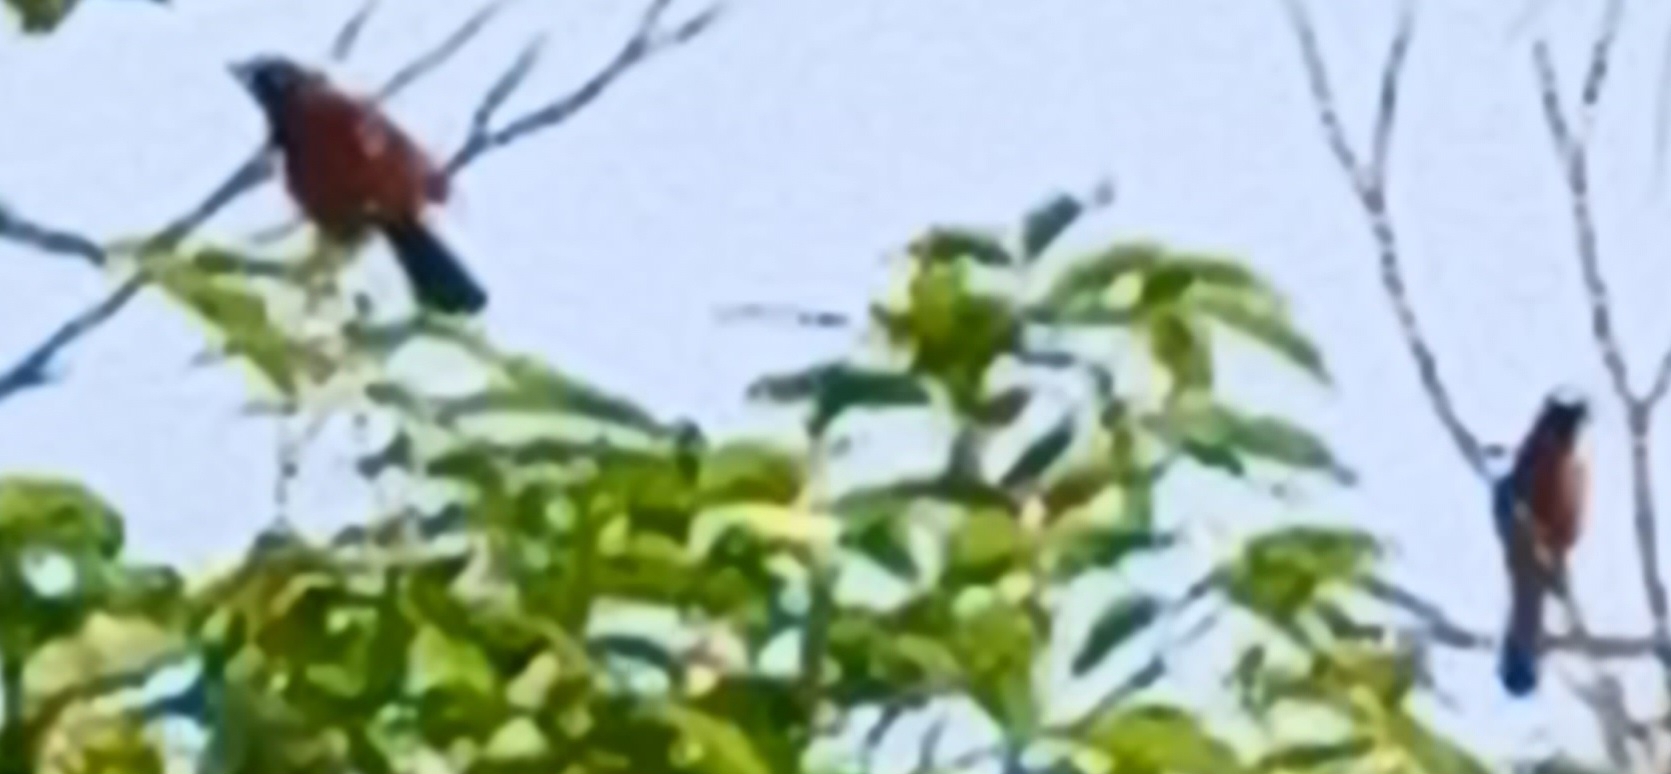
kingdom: Animalia
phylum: Chordata
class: Aves
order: Passeriformes
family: Thraupidae
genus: Ramphocelus
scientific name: Ramphocelus dimidiatus
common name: Crimson-backed tanager
